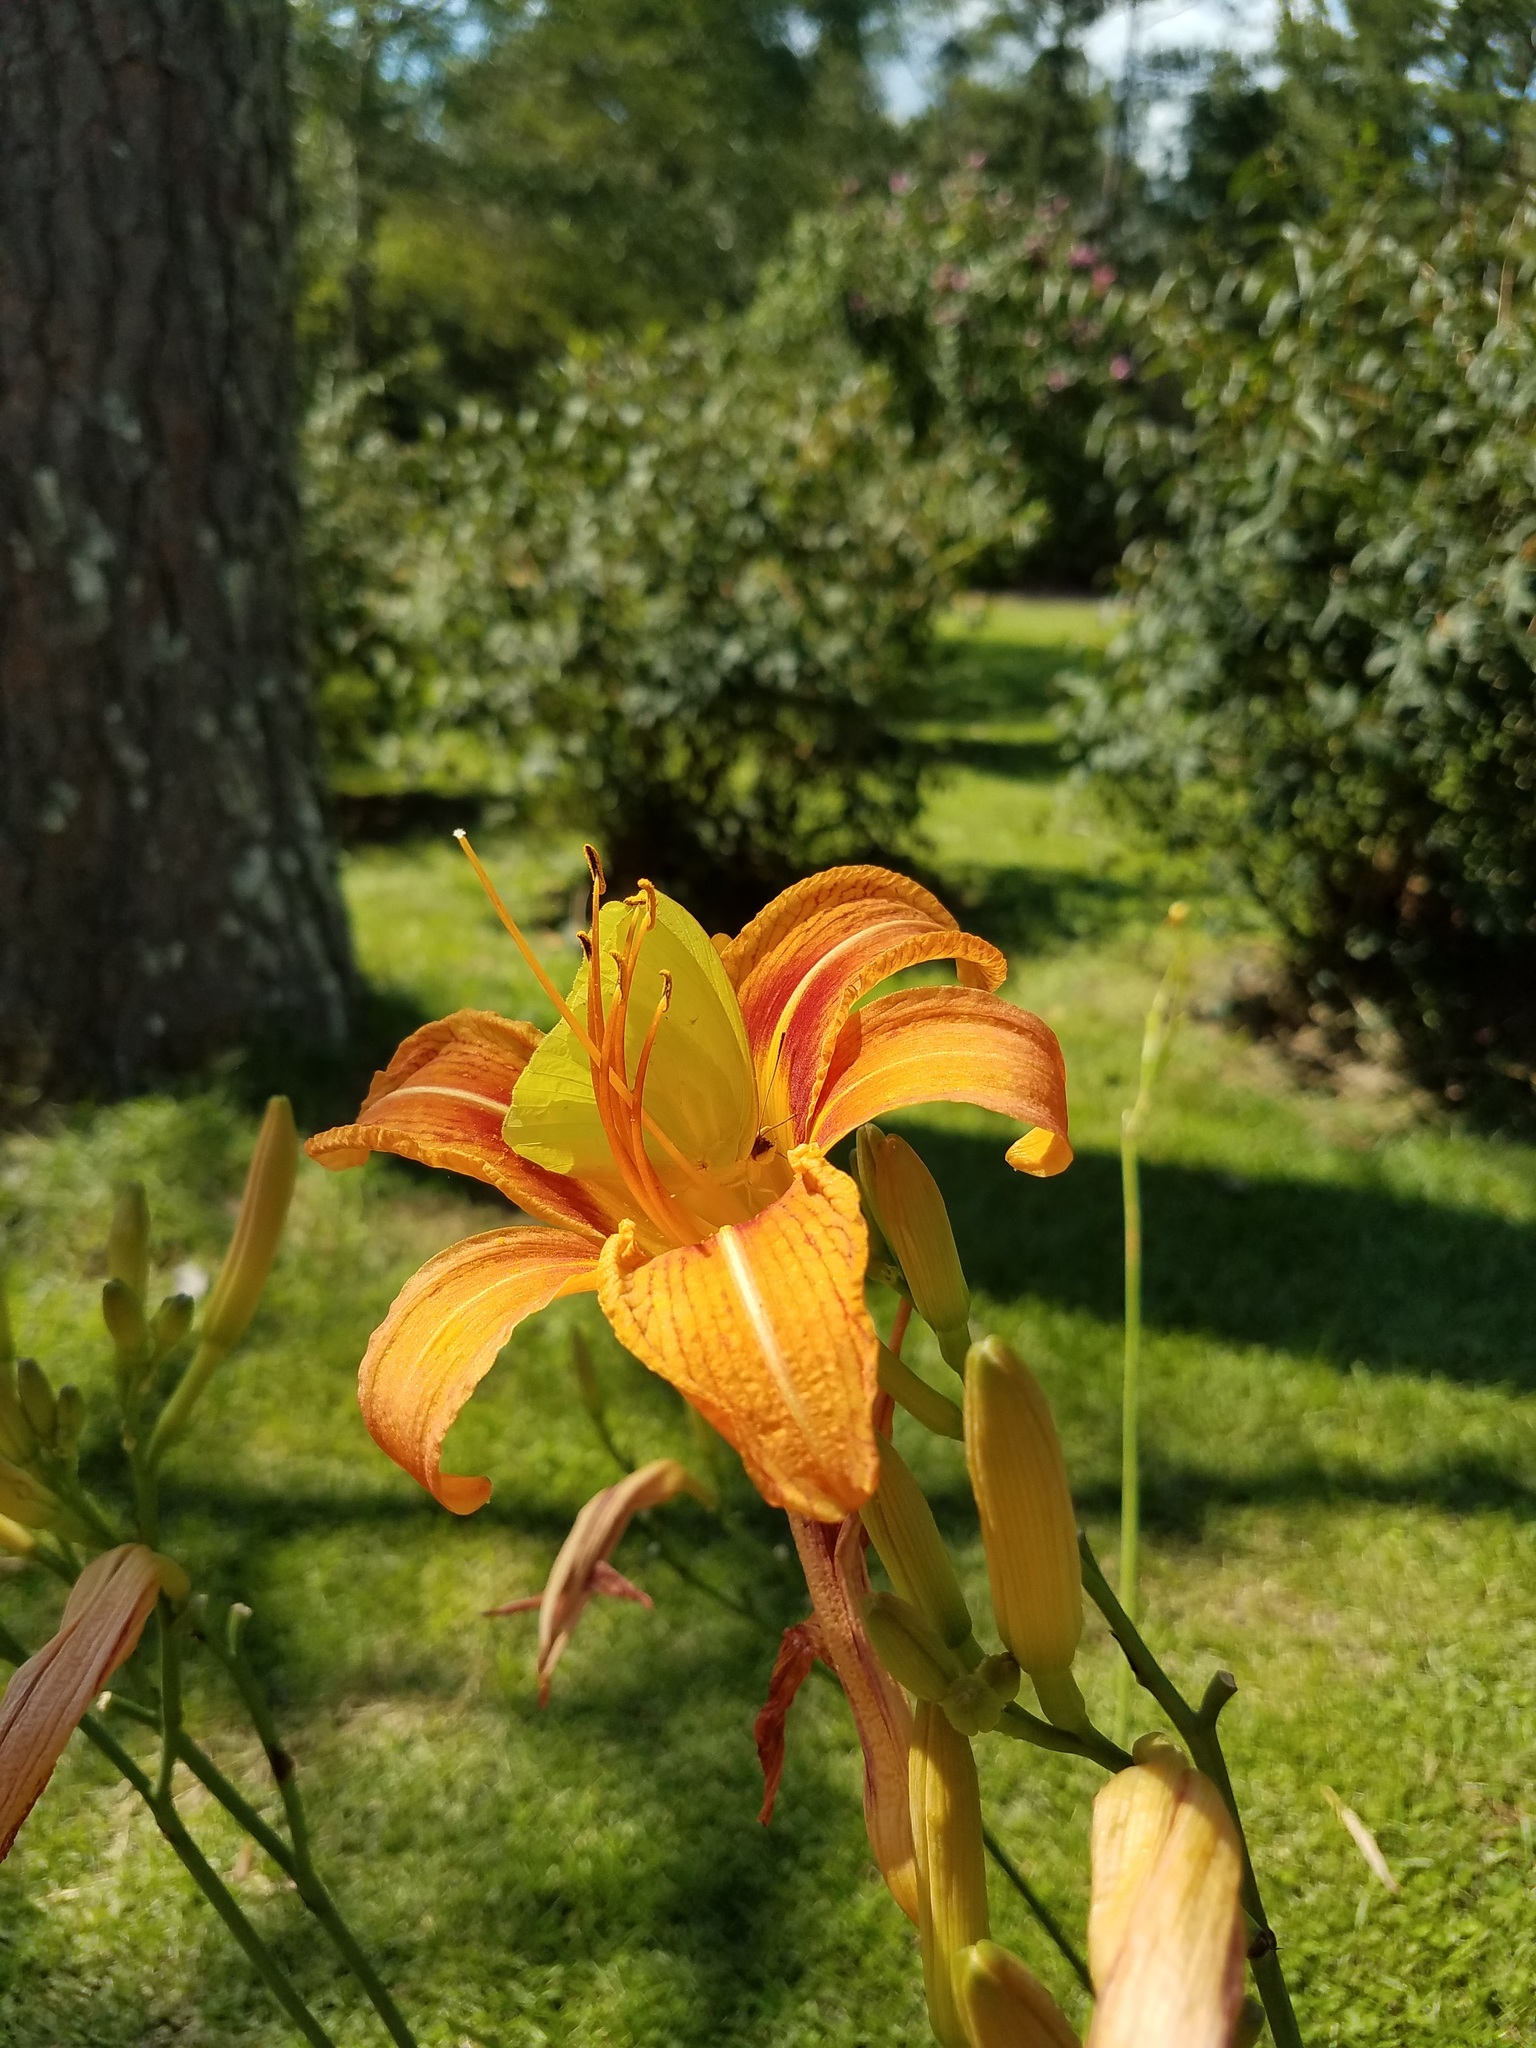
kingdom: Animalia
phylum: Arthropoda
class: Insecta
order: Lepidoptera
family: Pieridae
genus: Phoebis
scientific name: Phoebis sennae
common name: Cloudless sulphur
